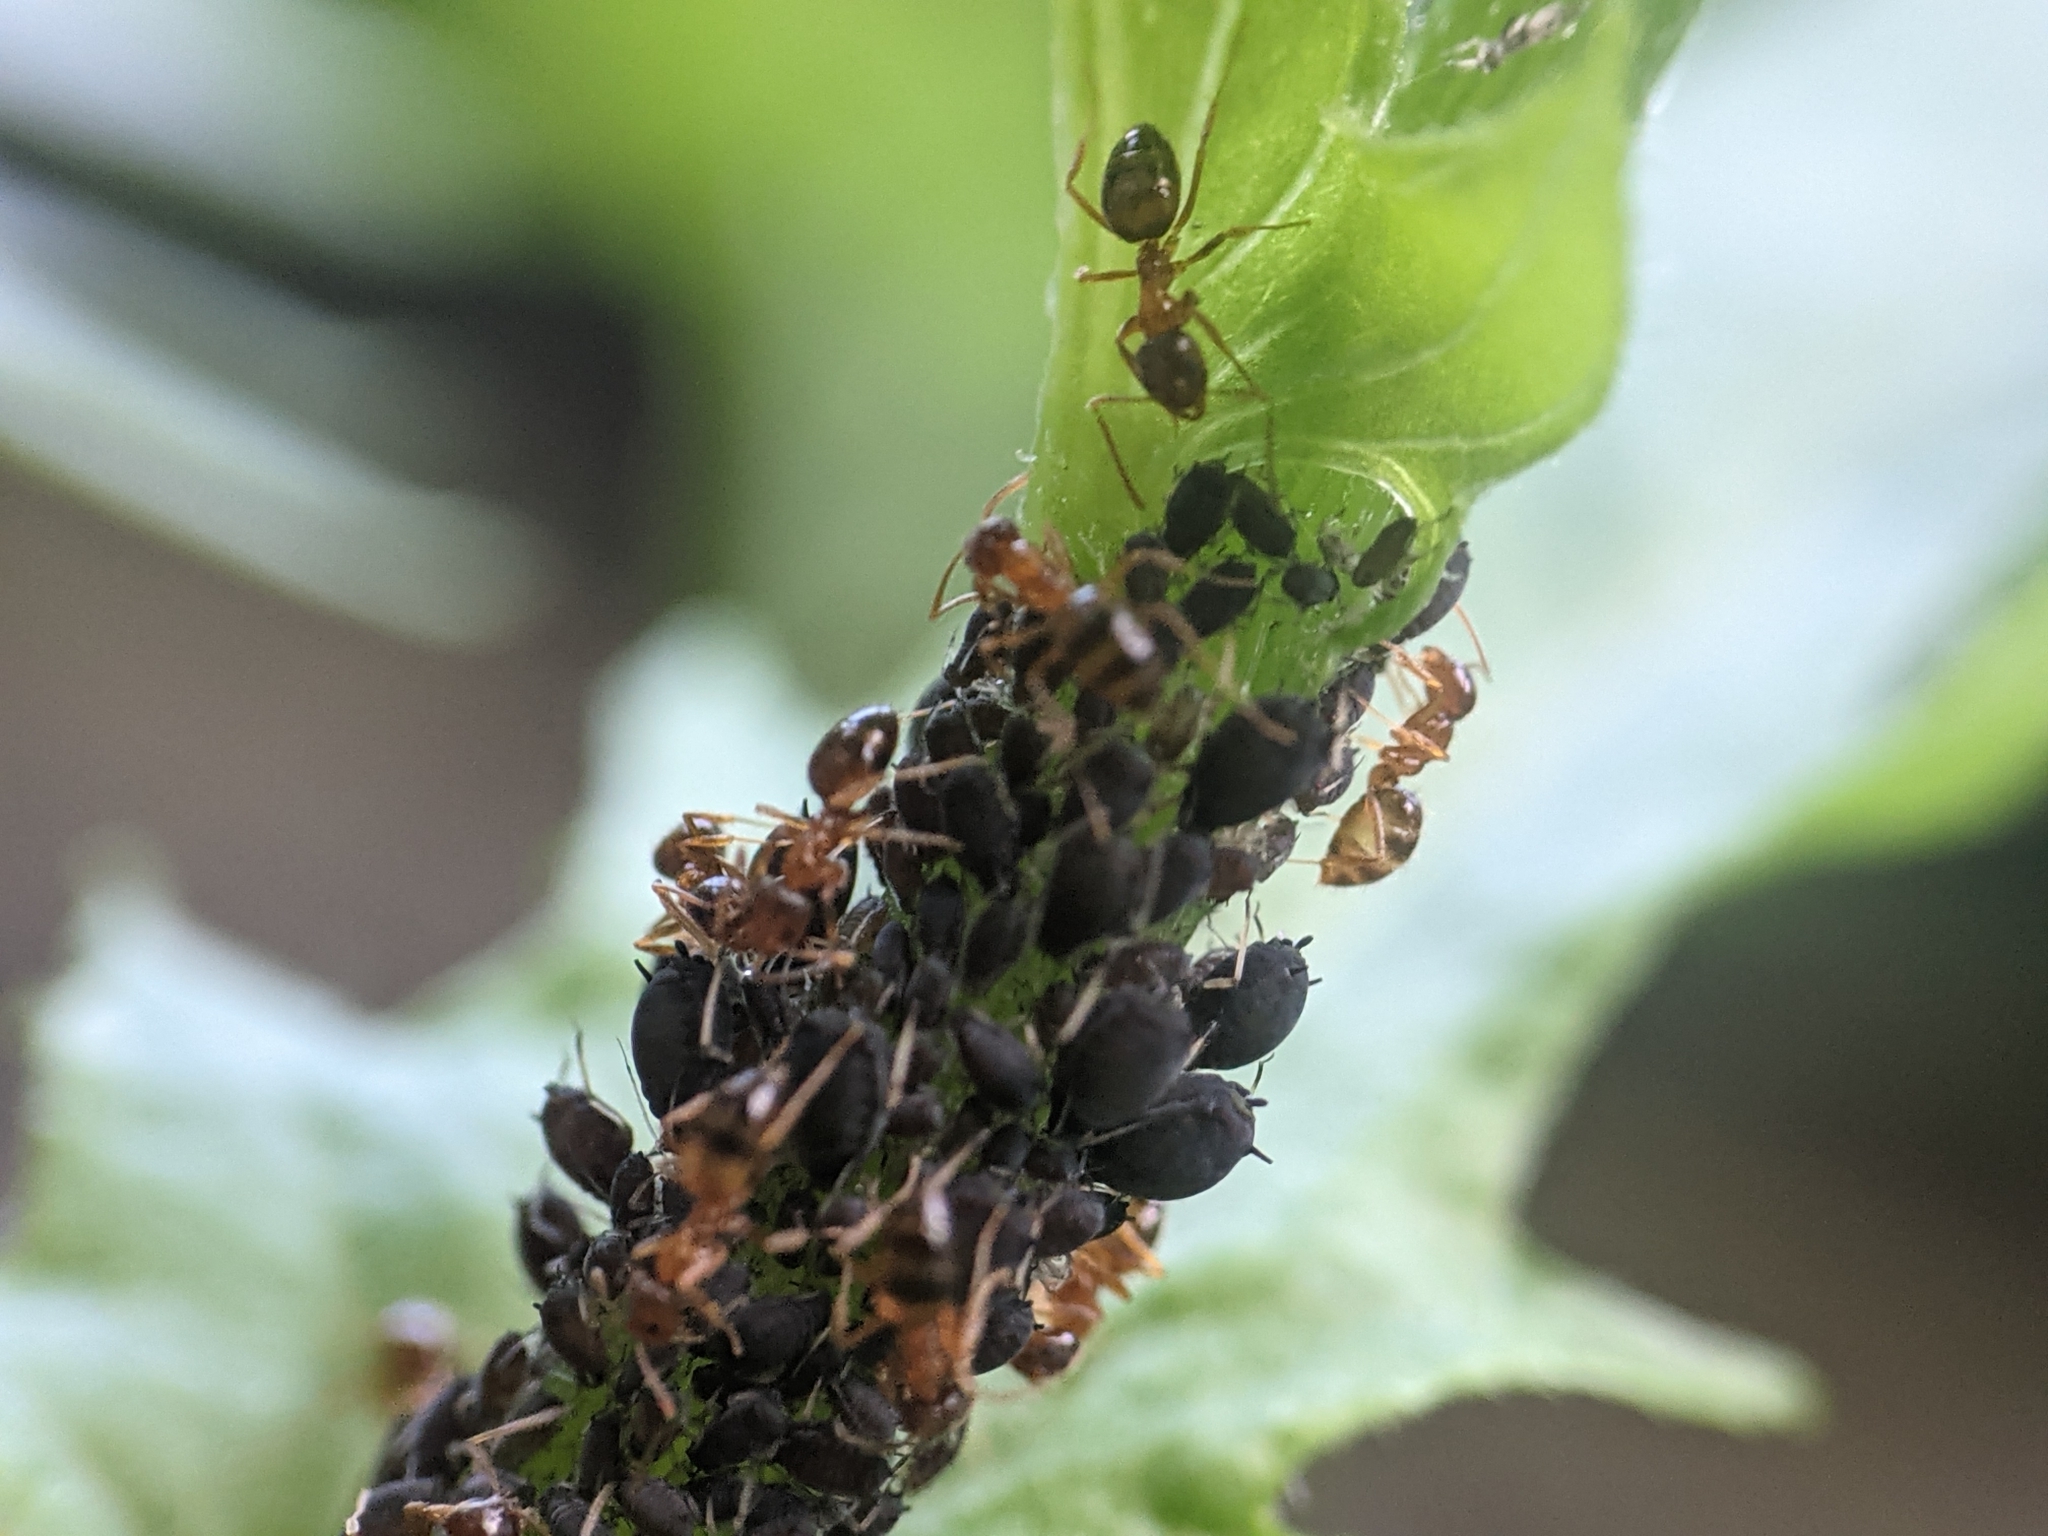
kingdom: Animalia
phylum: Arthropoda
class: Insecta
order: Hymenoptera
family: Formicidae
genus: Paratrechina
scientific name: Paratrechina flavipes
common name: Eastern asian formicine ant
